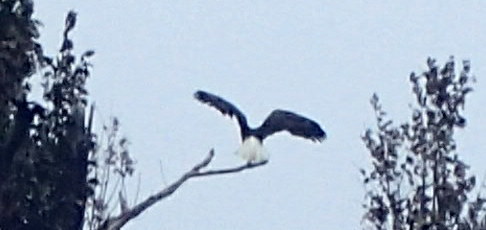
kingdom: Animalia
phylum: Chordata
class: Aves
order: Accipitriformes
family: Accipitridae
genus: Haliaeetus
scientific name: Haliaeetus leucocephalus
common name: Bald eagle
